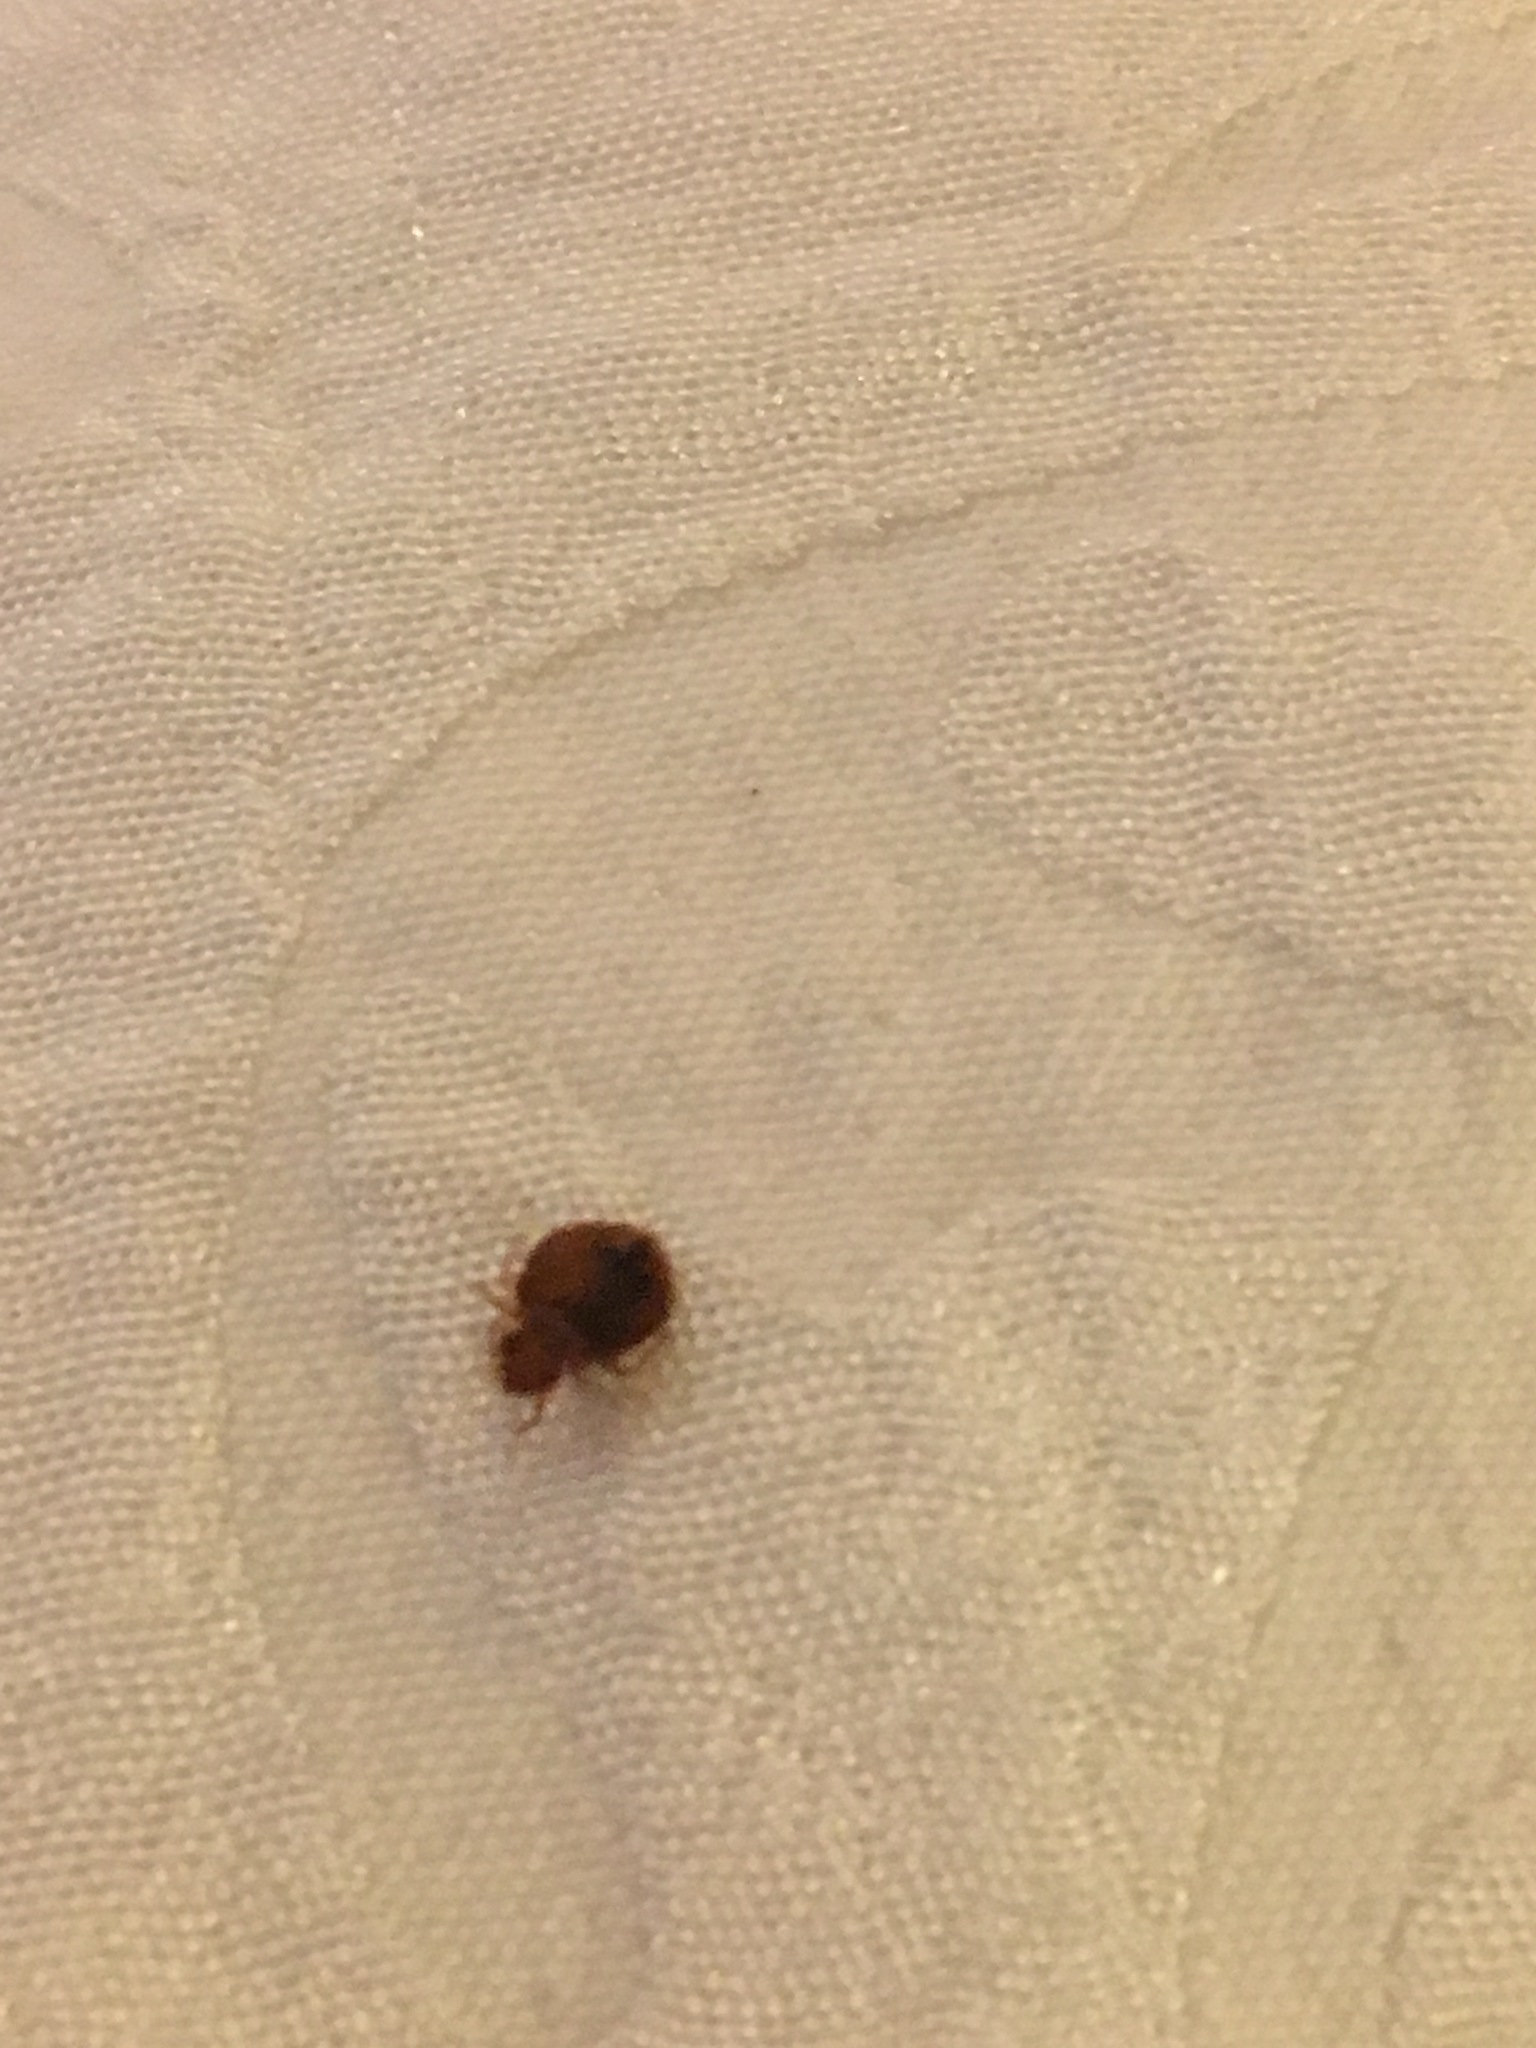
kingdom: Animalia
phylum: Arthropoda
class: Insecta
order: Hemiptera
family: Cimicidae
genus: Cimex
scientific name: Cimex lectularius
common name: Bed bug
